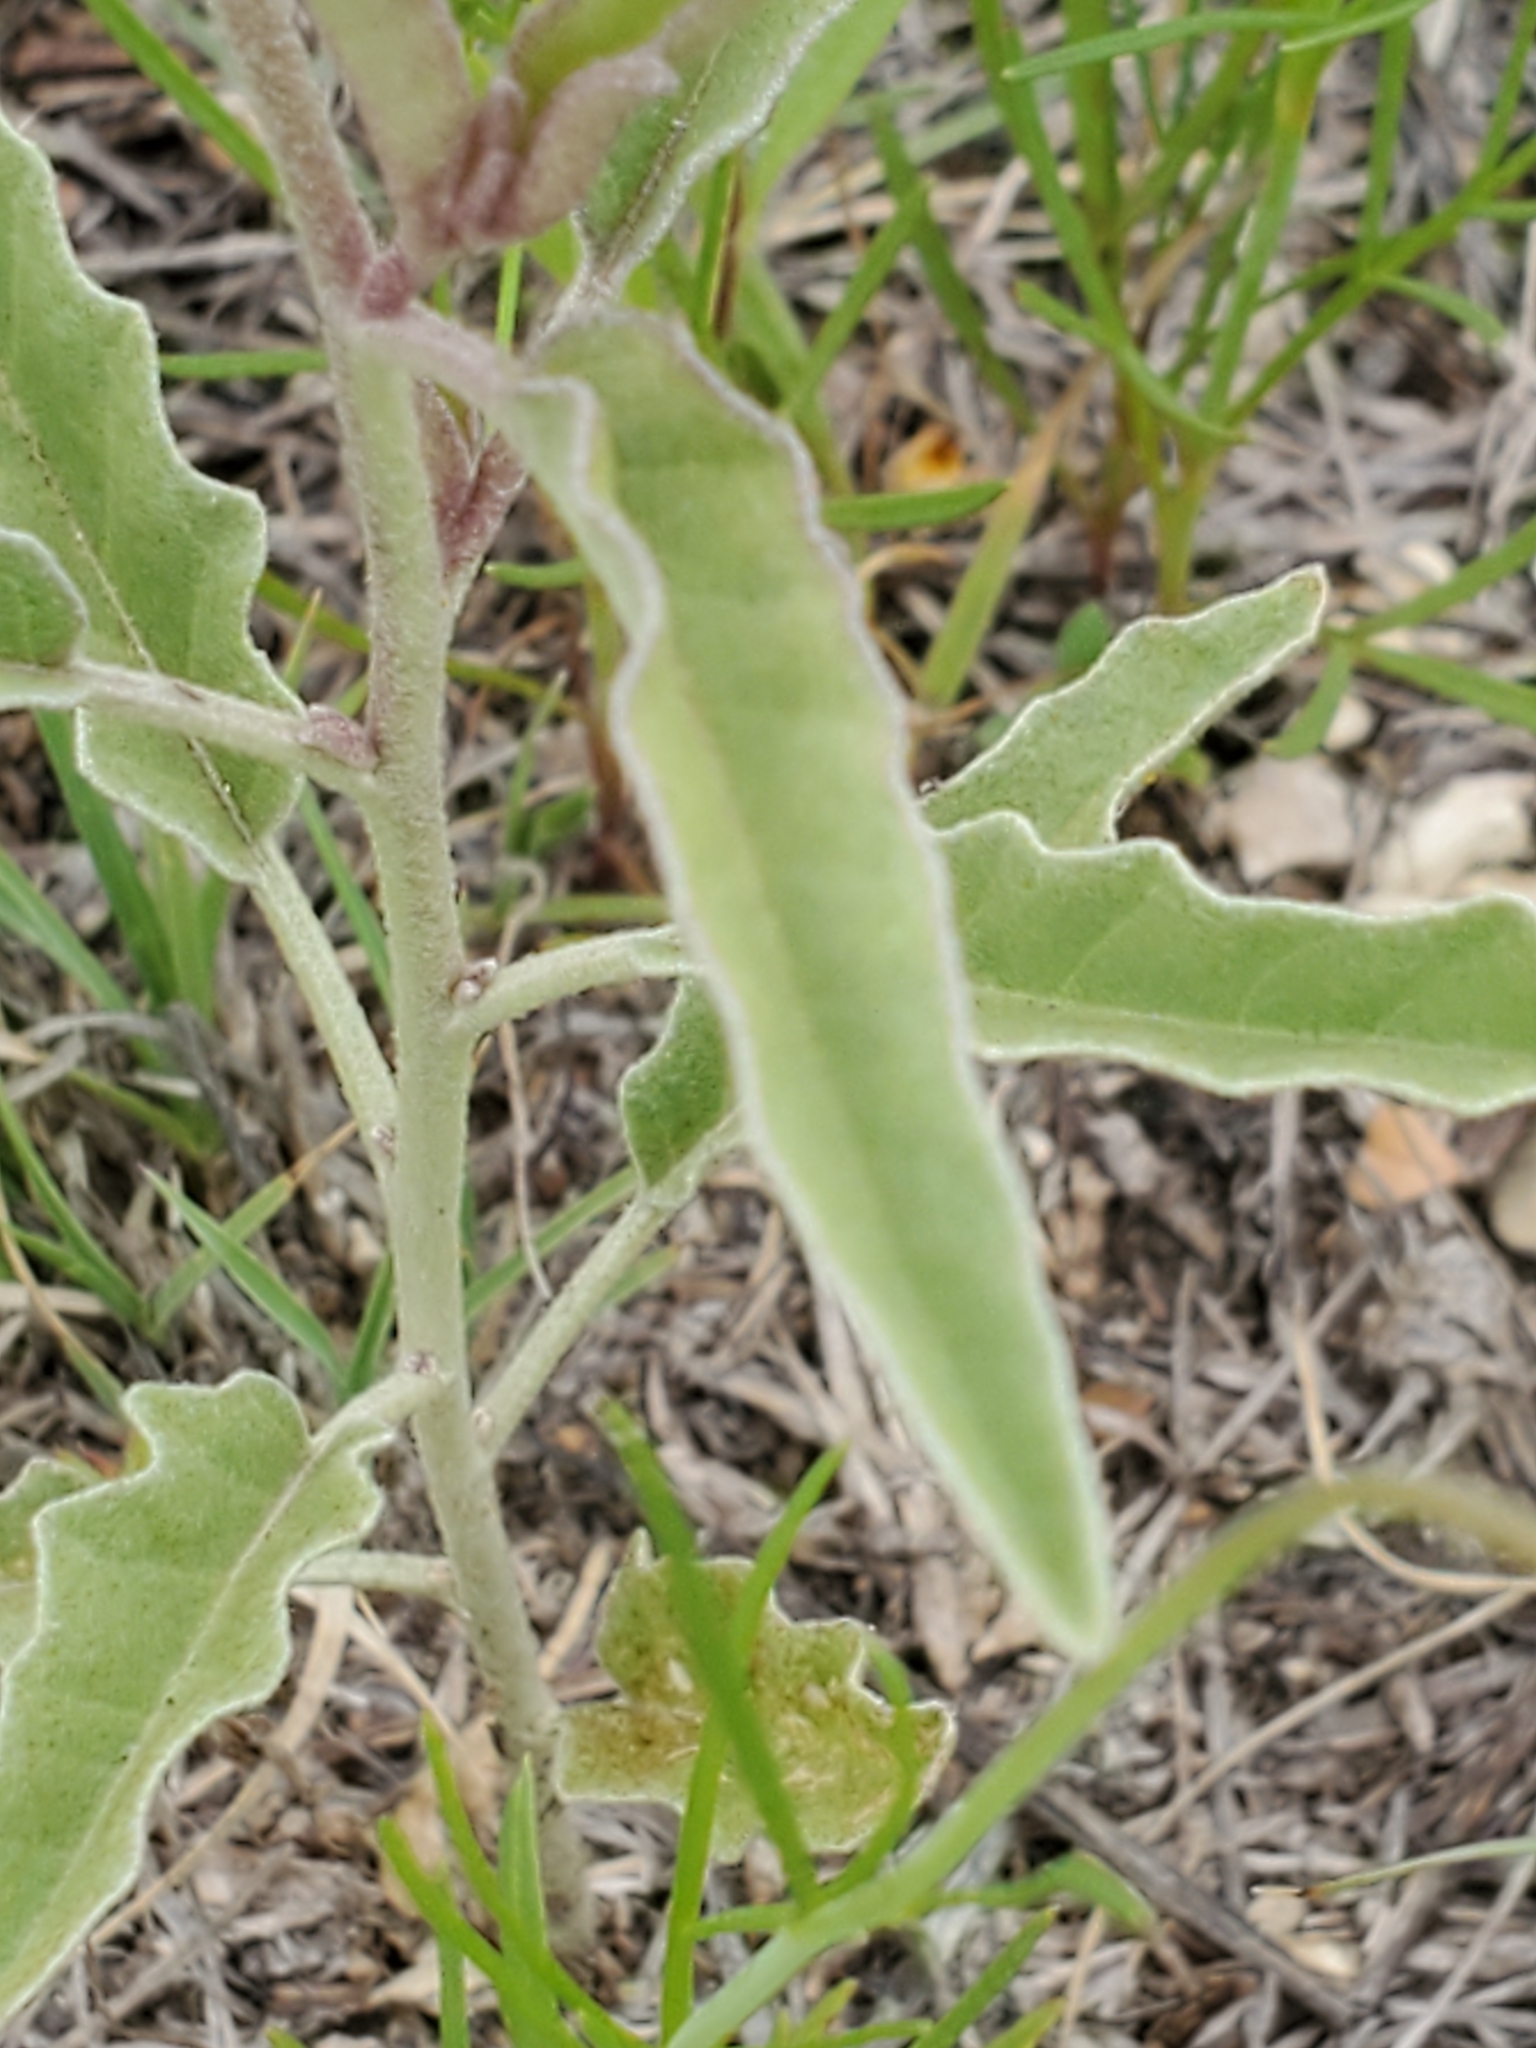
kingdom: Plantae
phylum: Tracheophyta
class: Magnoliopsida
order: Solanales
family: Solanaceae
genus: Solanum
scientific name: Solanum elaeagnifolium
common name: Silverleaf nightshade
